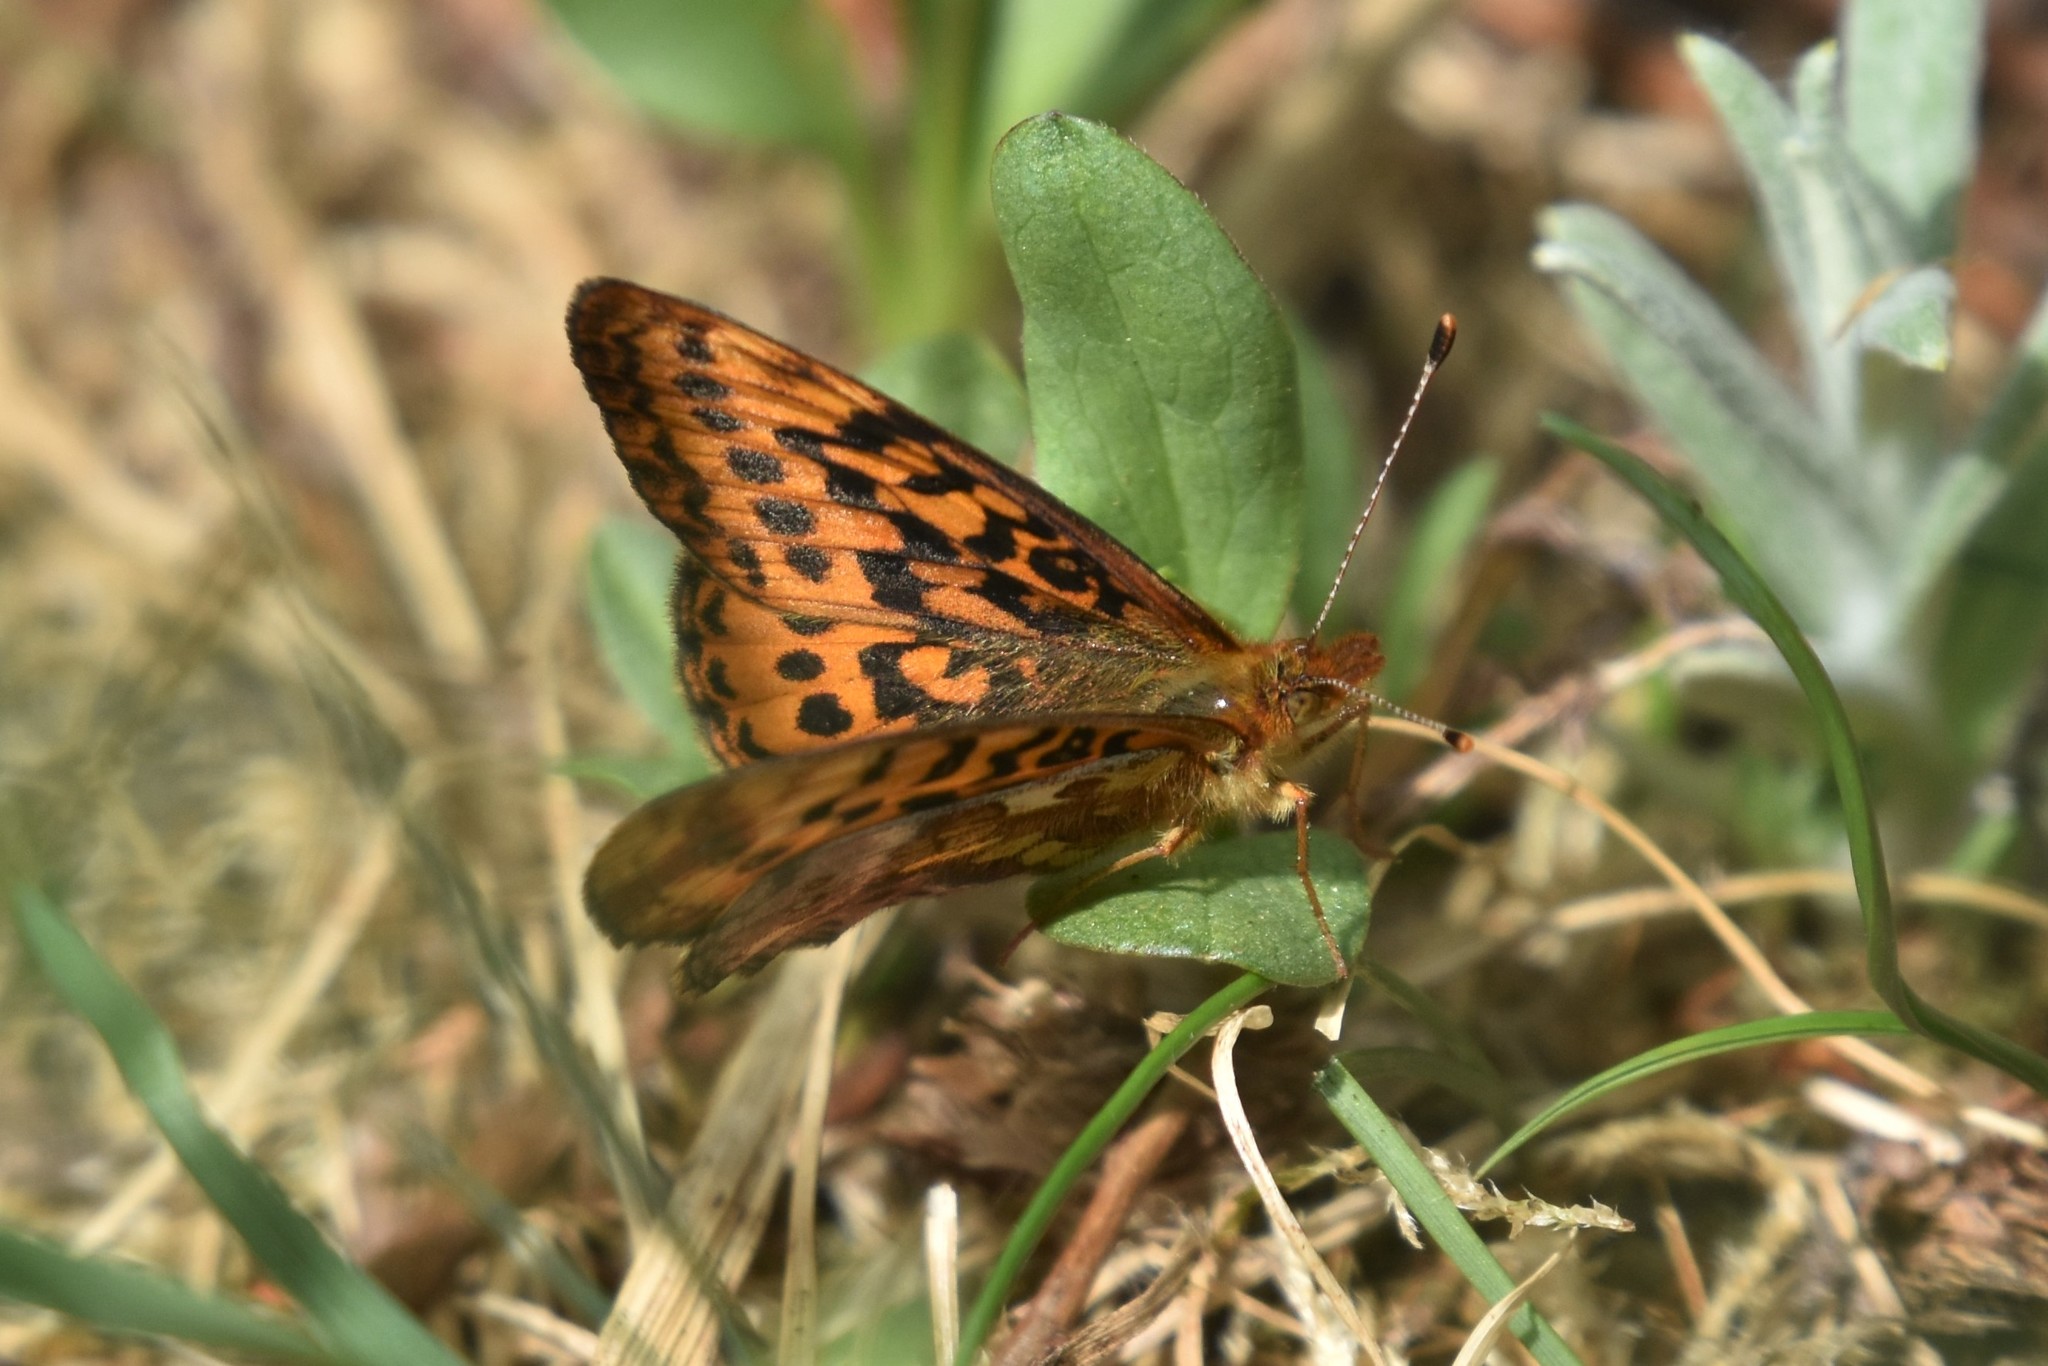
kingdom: Animalia
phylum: Arthropoda
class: Insecta
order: Lepidoptera
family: Nymphalidae
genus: Boloria
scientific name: Boloria epithore
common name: Pacific fritillary
